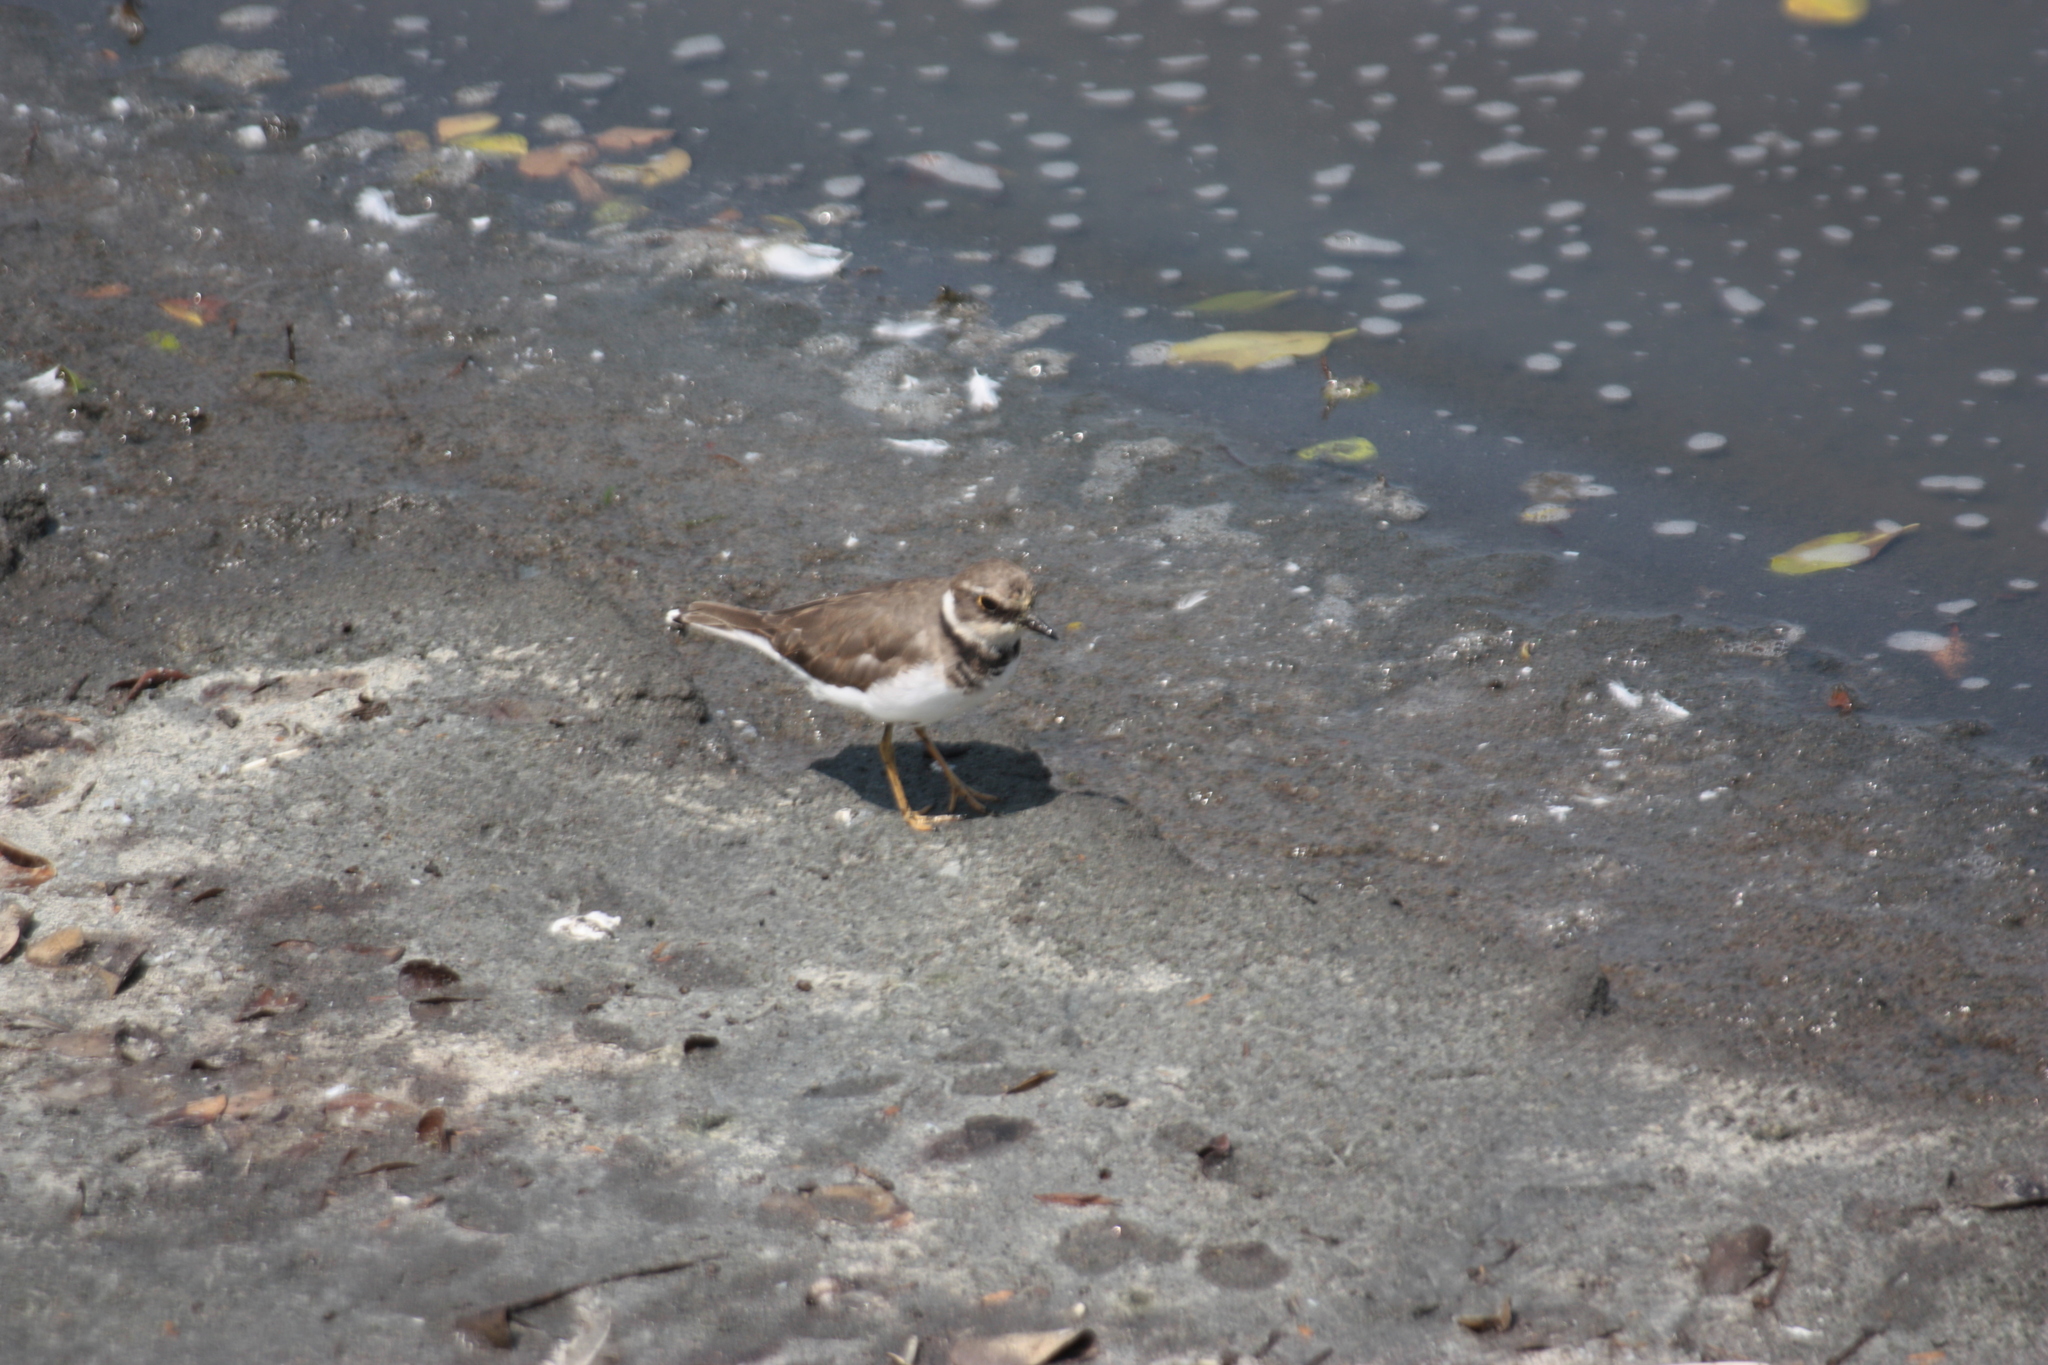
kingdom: Animalia
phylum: Chordata
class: Aves
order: Charadriiformes
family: Charadriidae
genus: Charadrius
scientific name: Charadrius dubius
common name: Little ringed plover
